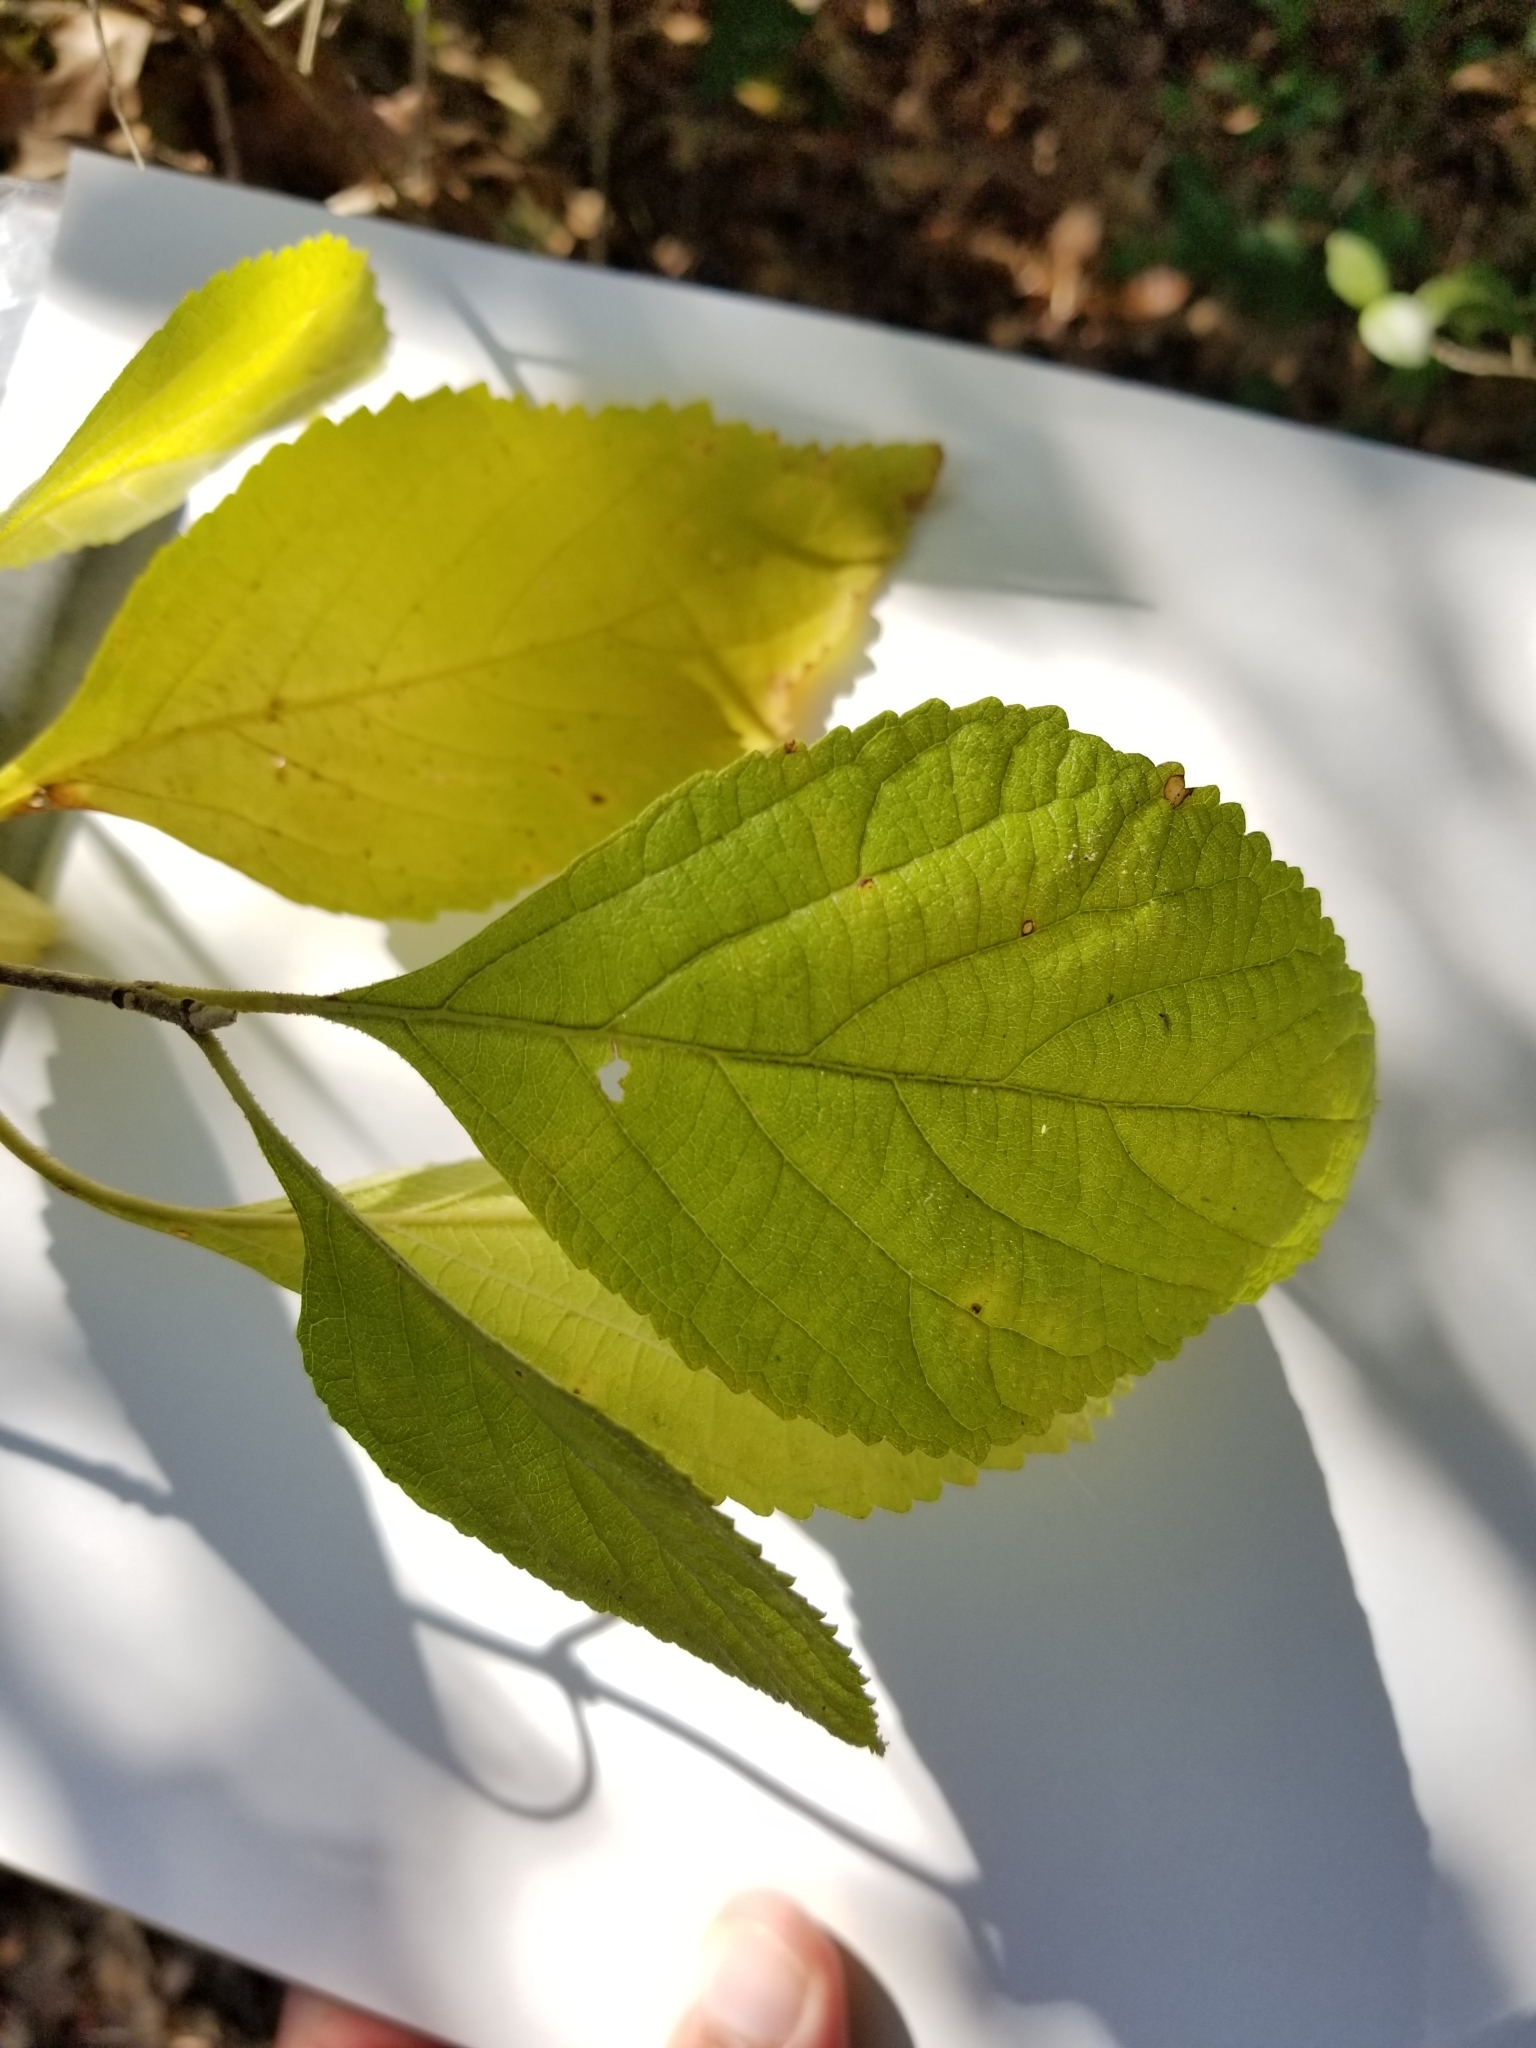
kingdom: Plantae
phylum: Tracheophyta
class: Magnoliopsida
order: Lamiales
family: Lamiaceae
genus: Callicarpa
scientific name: Callicarpa americana
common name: American beautyberry
